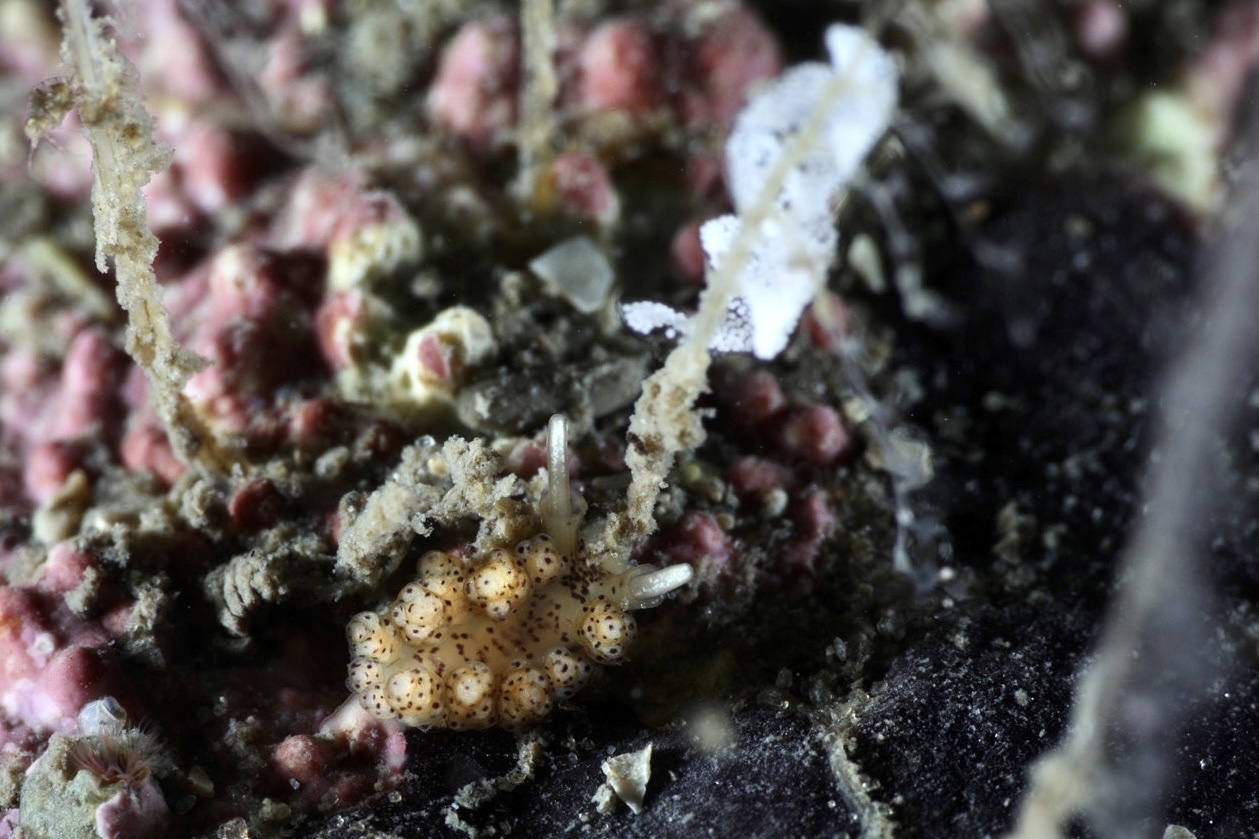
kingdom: Animalia
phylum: Mollusca
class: Gastropoda
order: Nudibranchia
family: Dotidae
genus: Doto
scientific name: Doto dunnei
